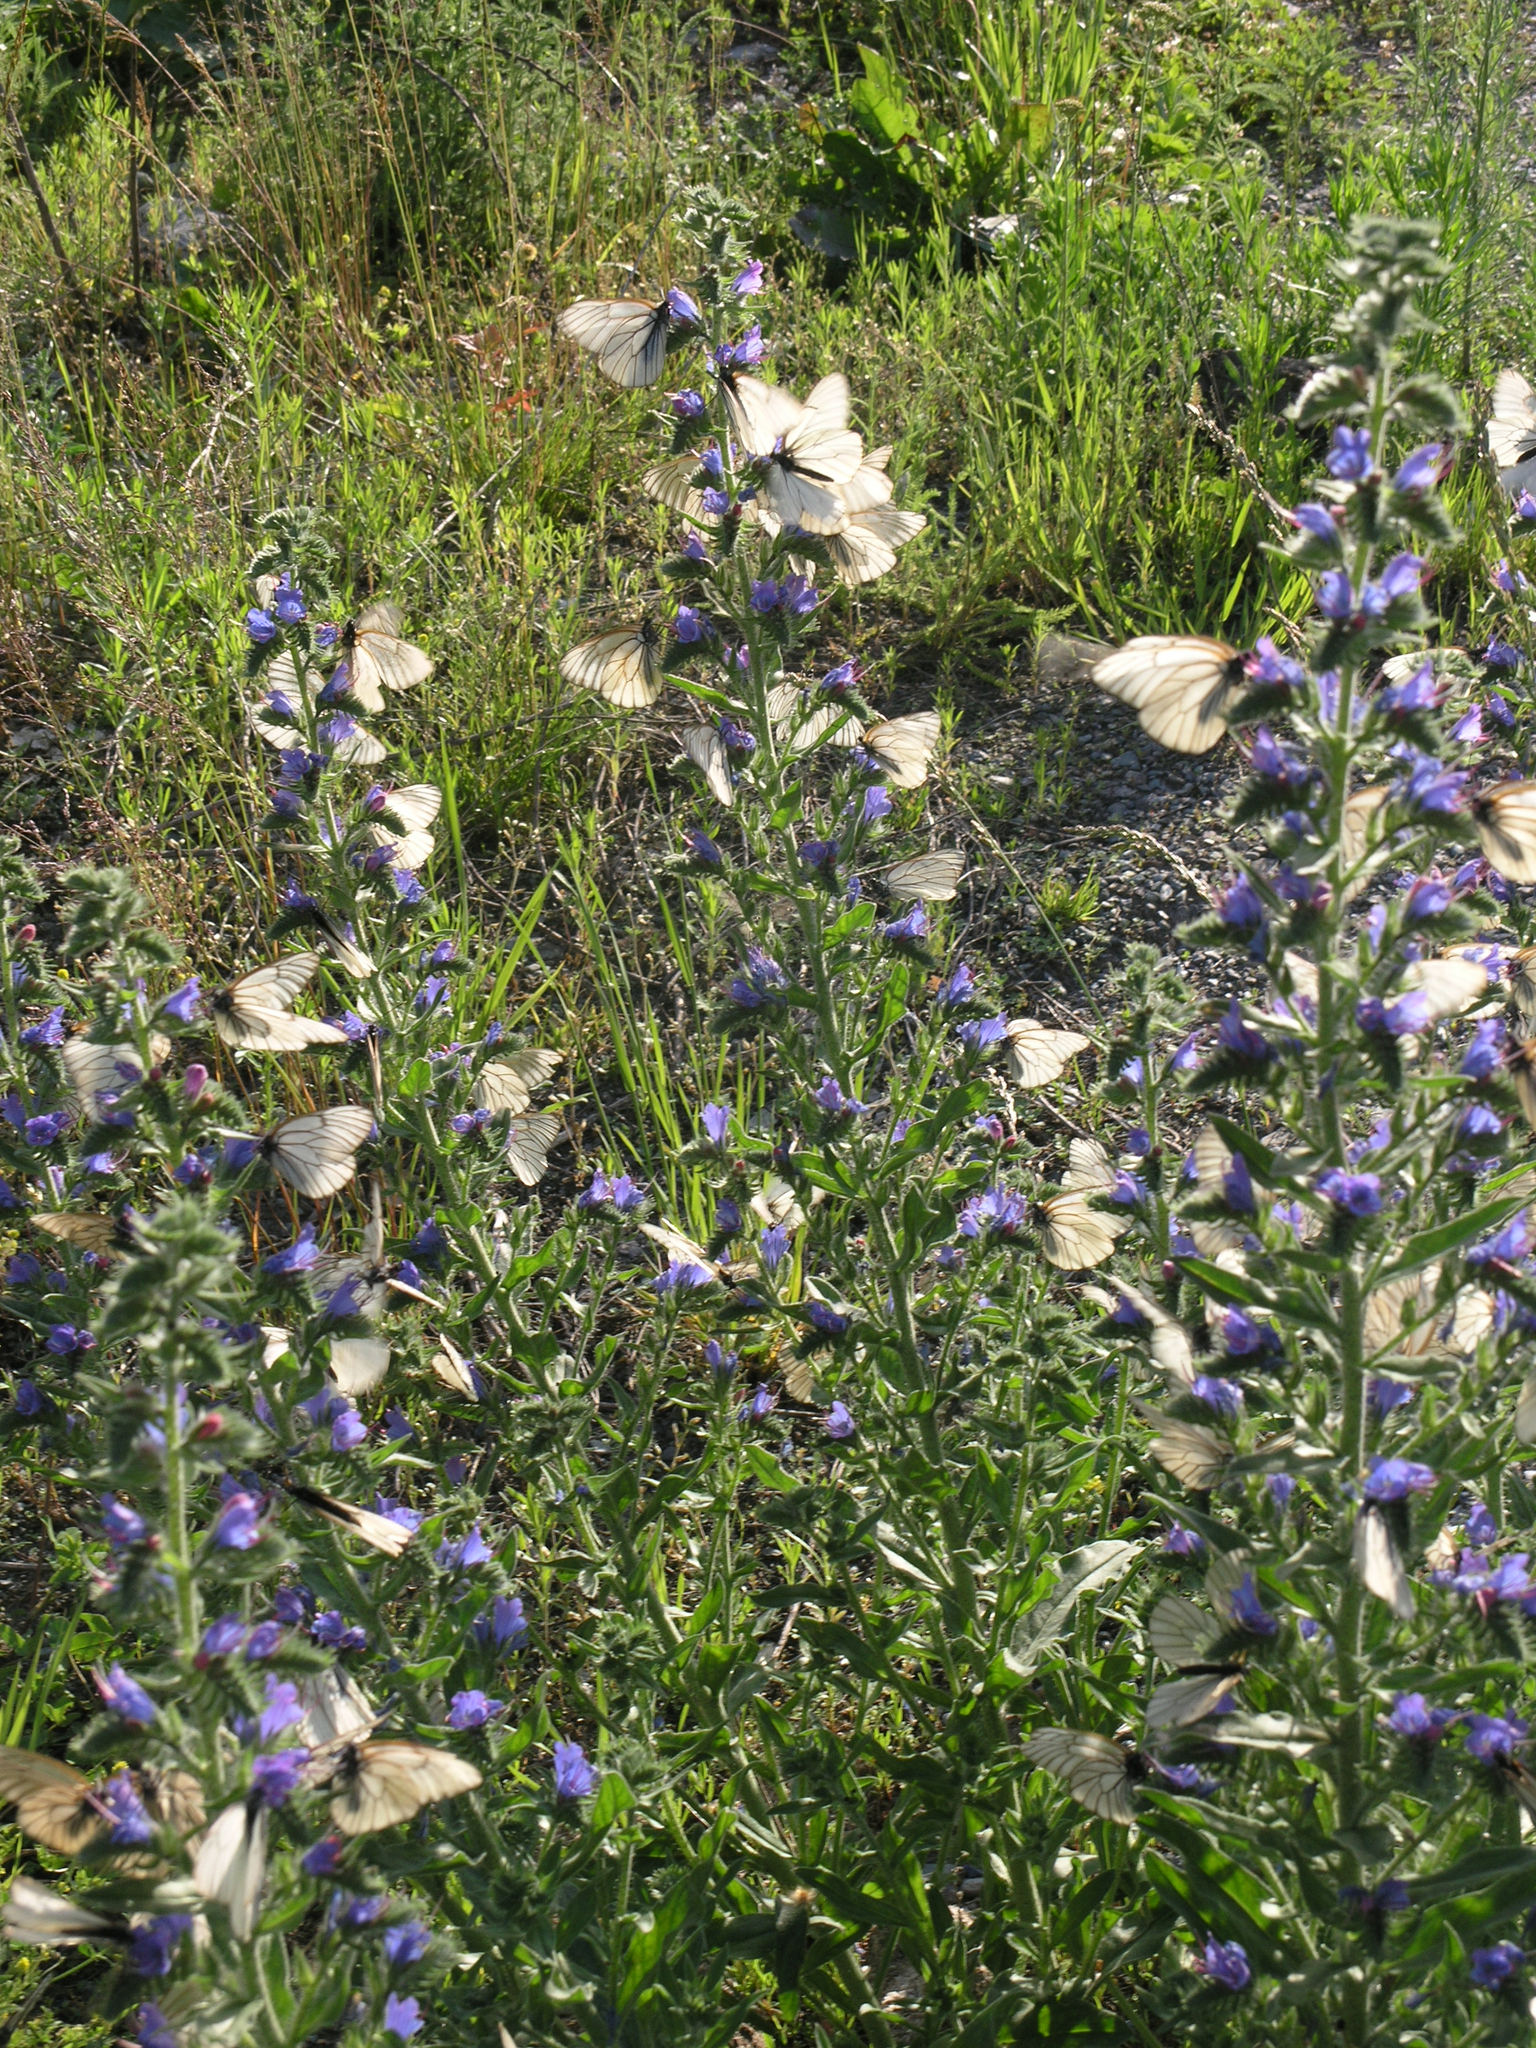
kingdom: Animalia
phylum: Arthropoda
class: Insecta
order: Lepidoptera
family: Pieridae
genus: Aporia
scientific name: Aporia crataegi
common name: Black-veined white
